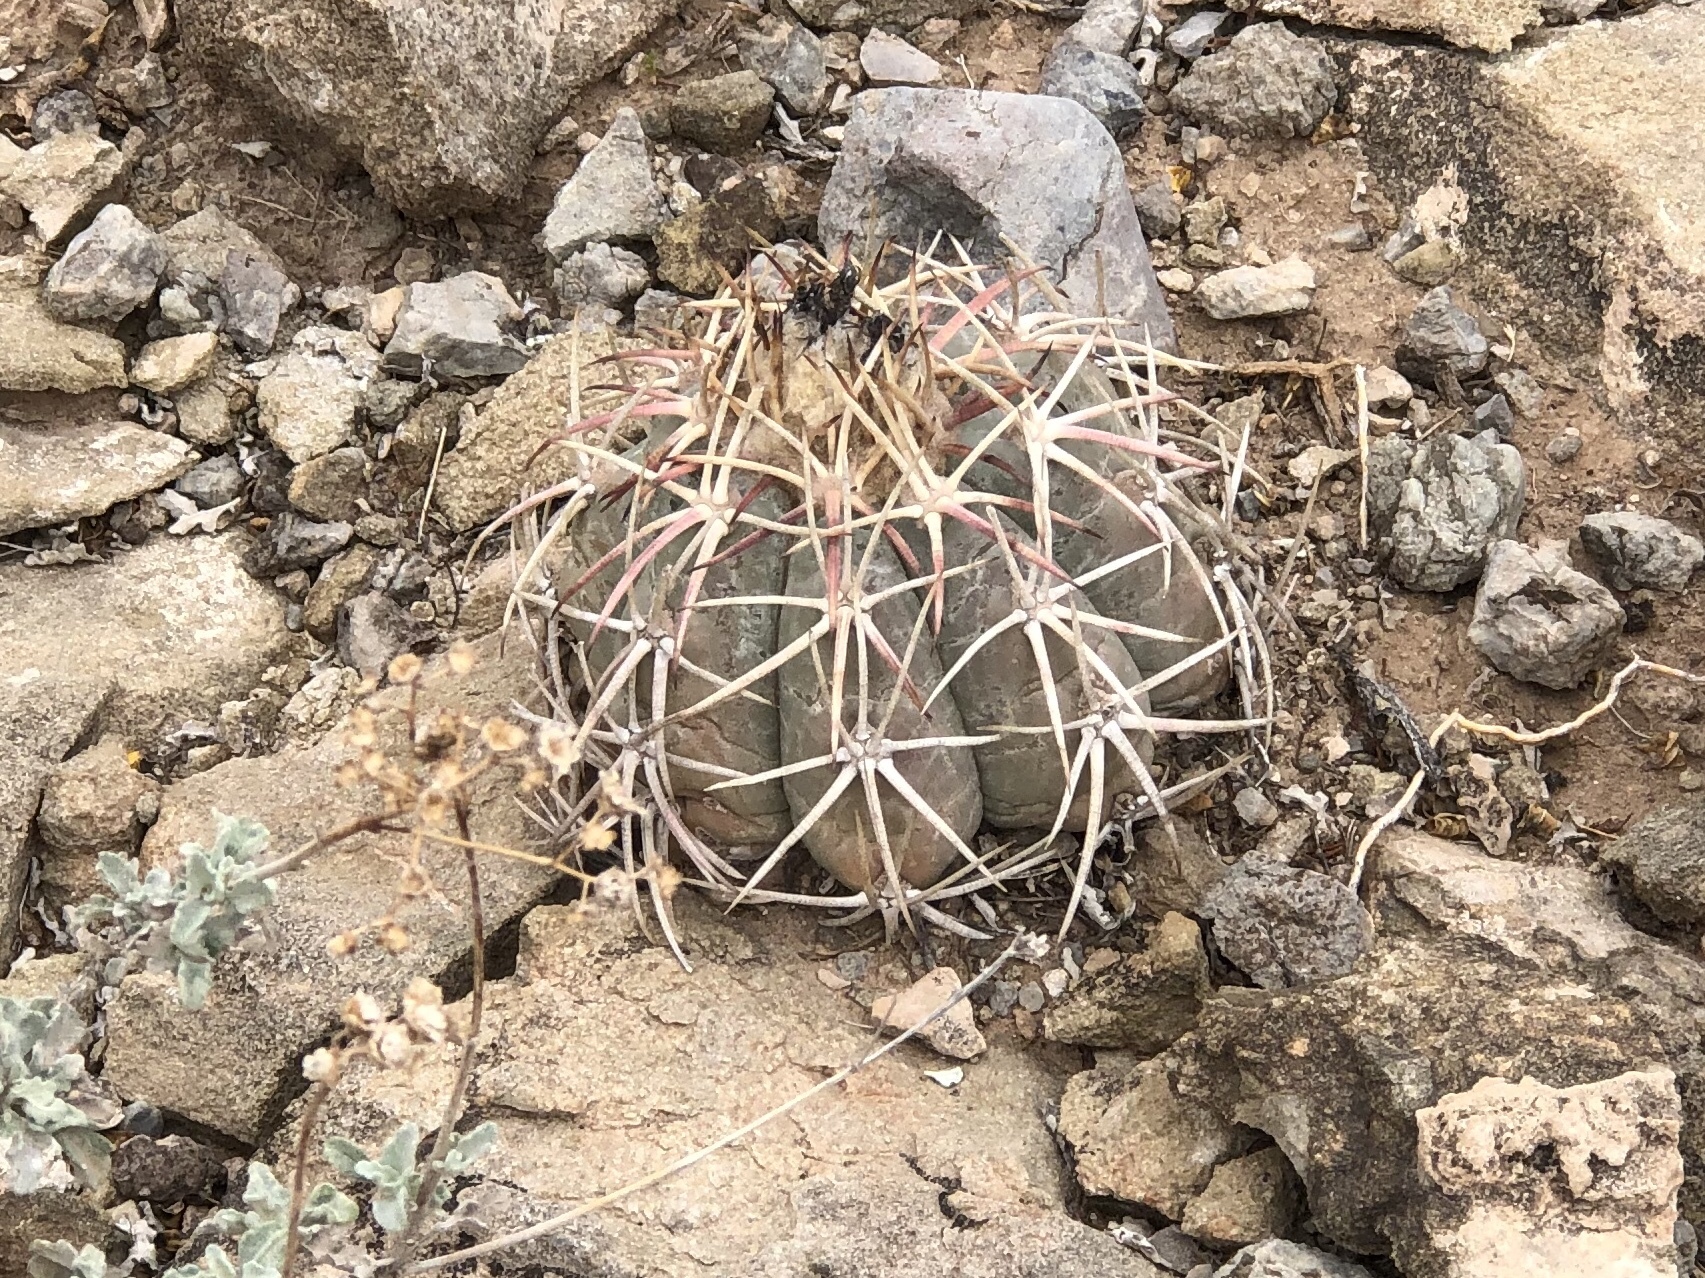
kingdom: Plantae
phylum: Tracheophyta
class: Magnoliopsida
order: Caryophyllales
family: Cactaceae
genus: Echinocactus
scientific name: Echinocactus horizonthalonius
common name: Devilshead
